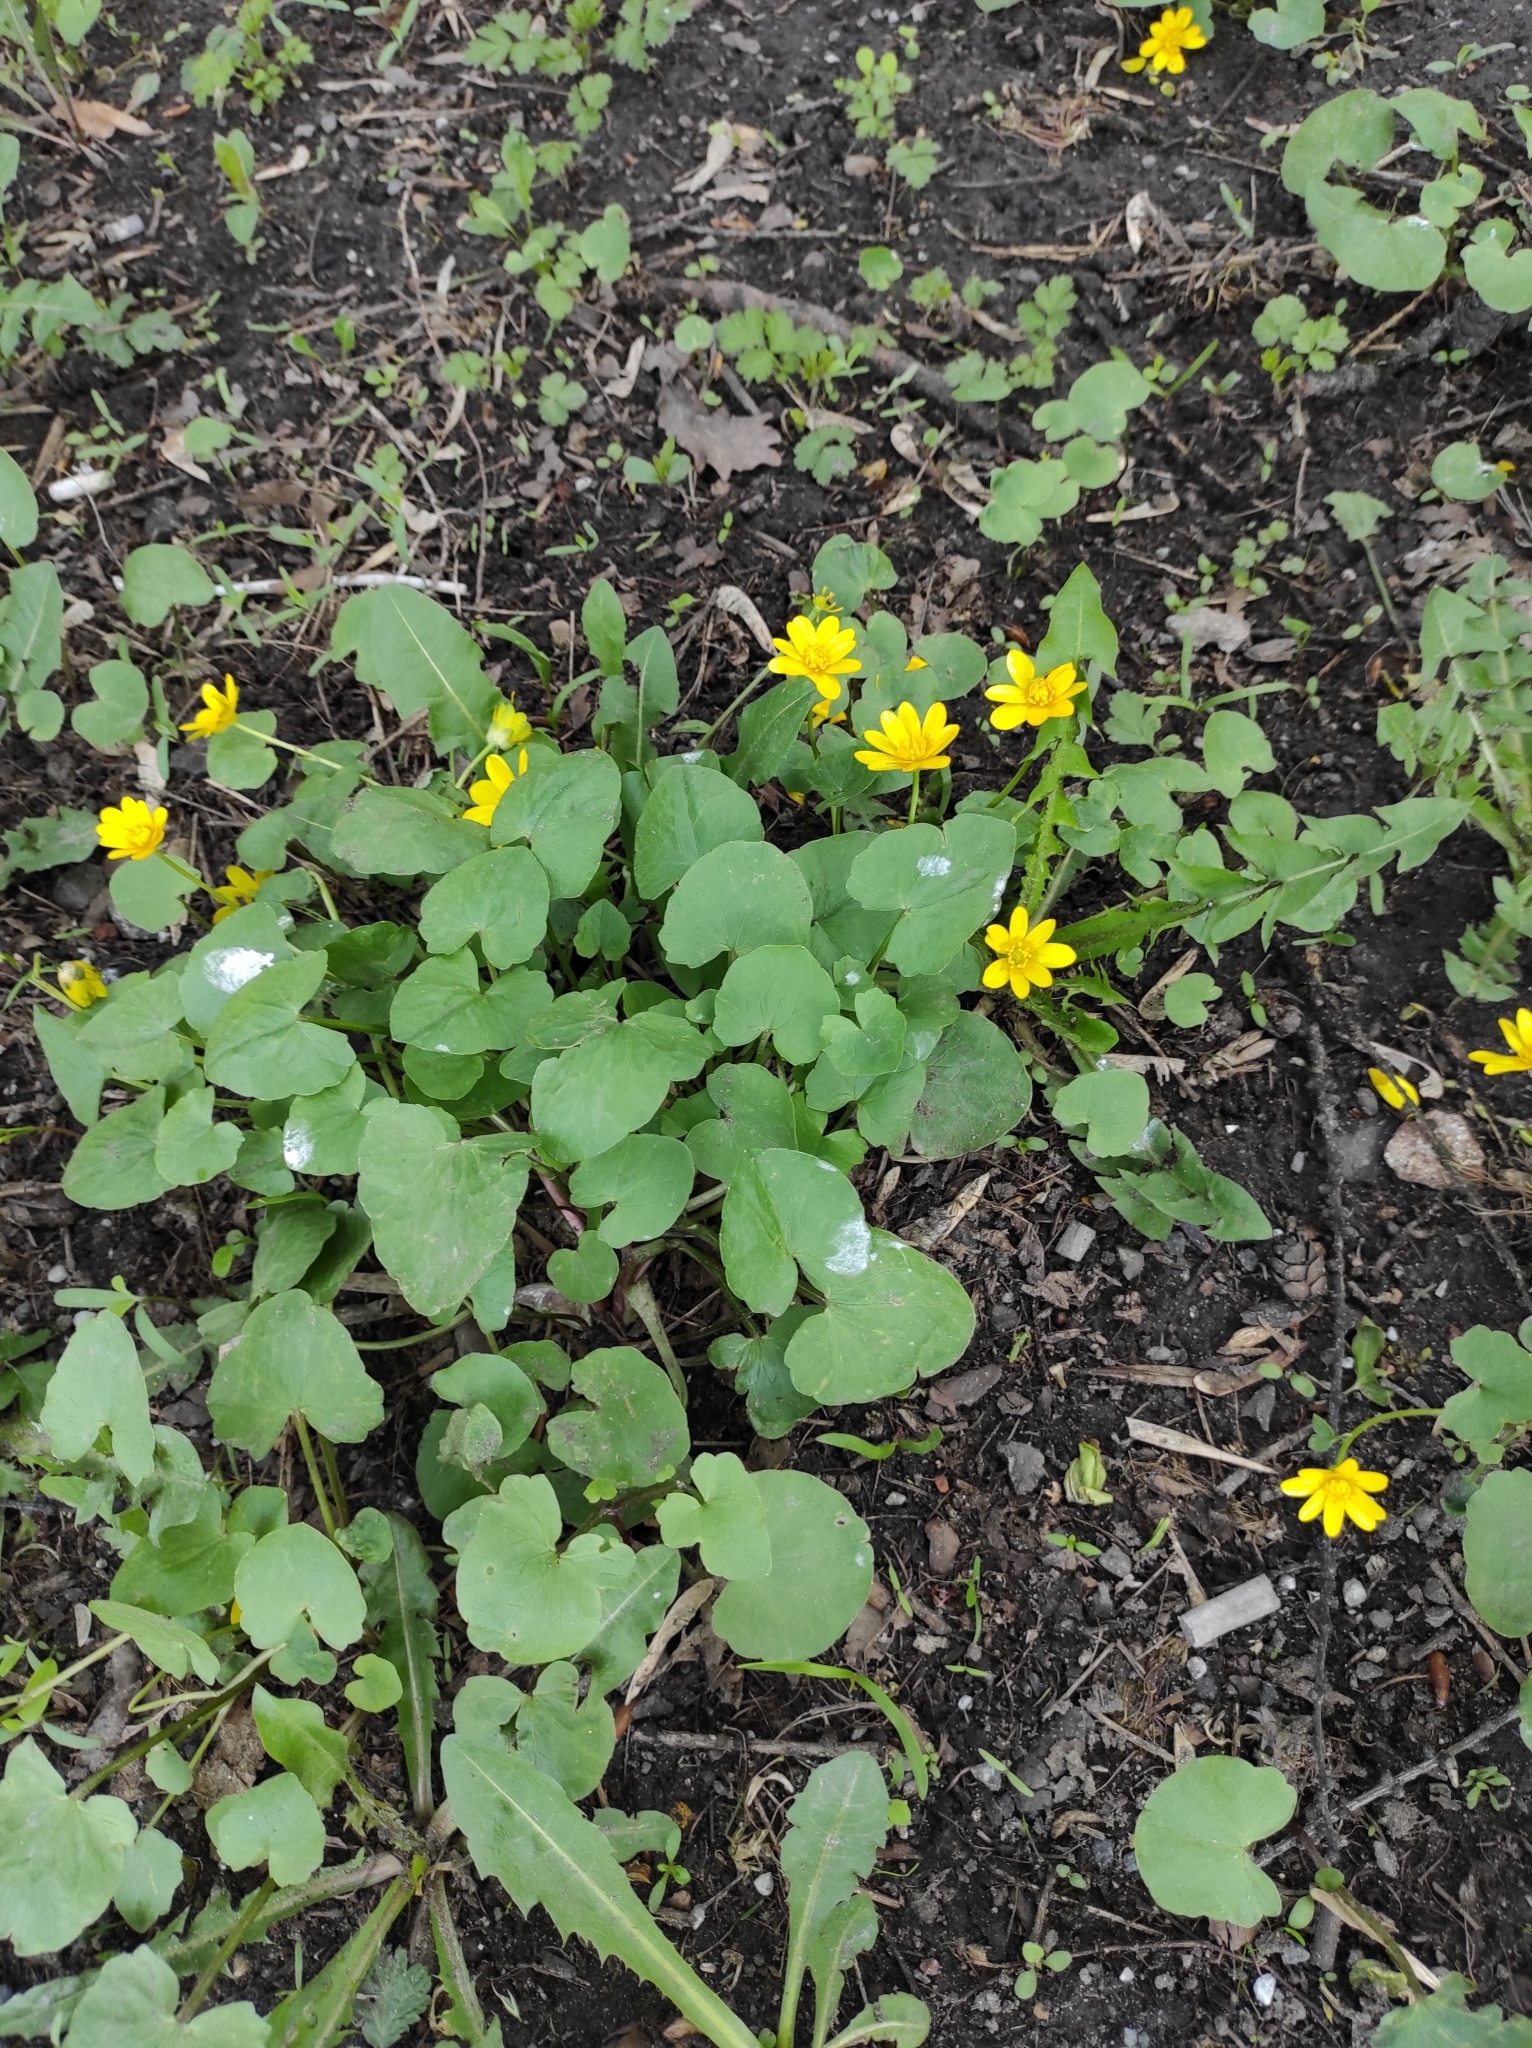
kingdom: Plantae
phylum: Tracheophyta
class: Magnoliopsida
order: Ranunculales
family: Ranunculaceae
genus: Ficaria
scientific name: Ficaria verna
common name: Lesser celandine
